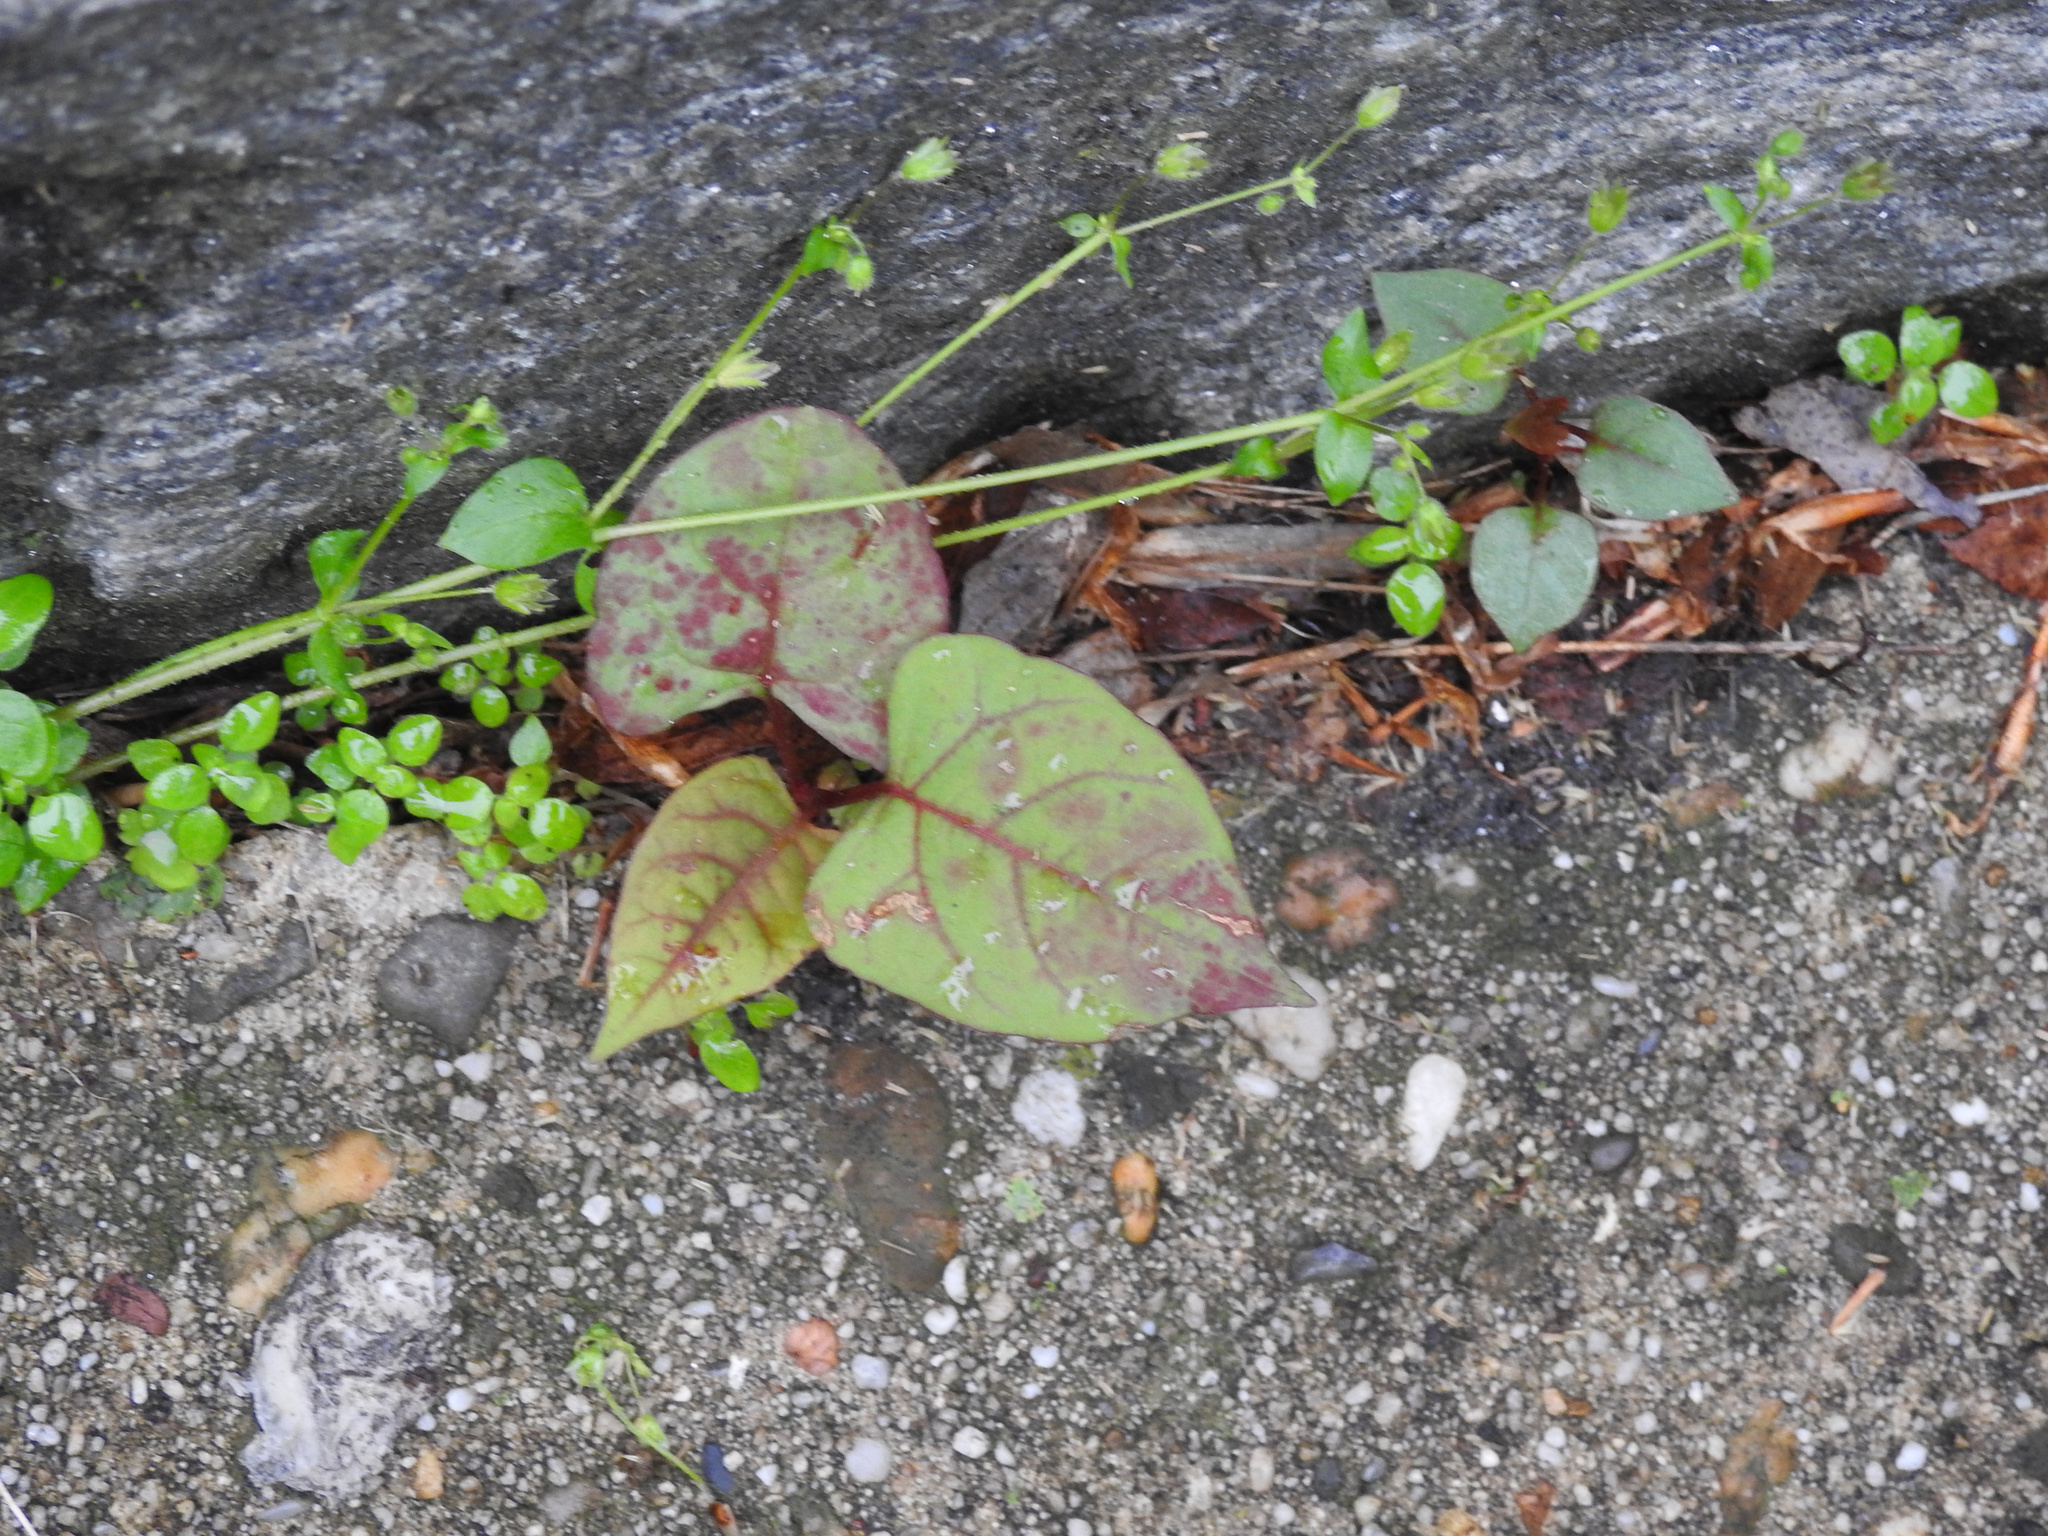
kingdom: Plantae
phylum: Tracheophyta
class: Magnoliopsida
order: Caryophyllales
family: Polygonaceae
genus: Reynoutria
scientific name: Reynoutria japonica
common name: Japanese knotweed
